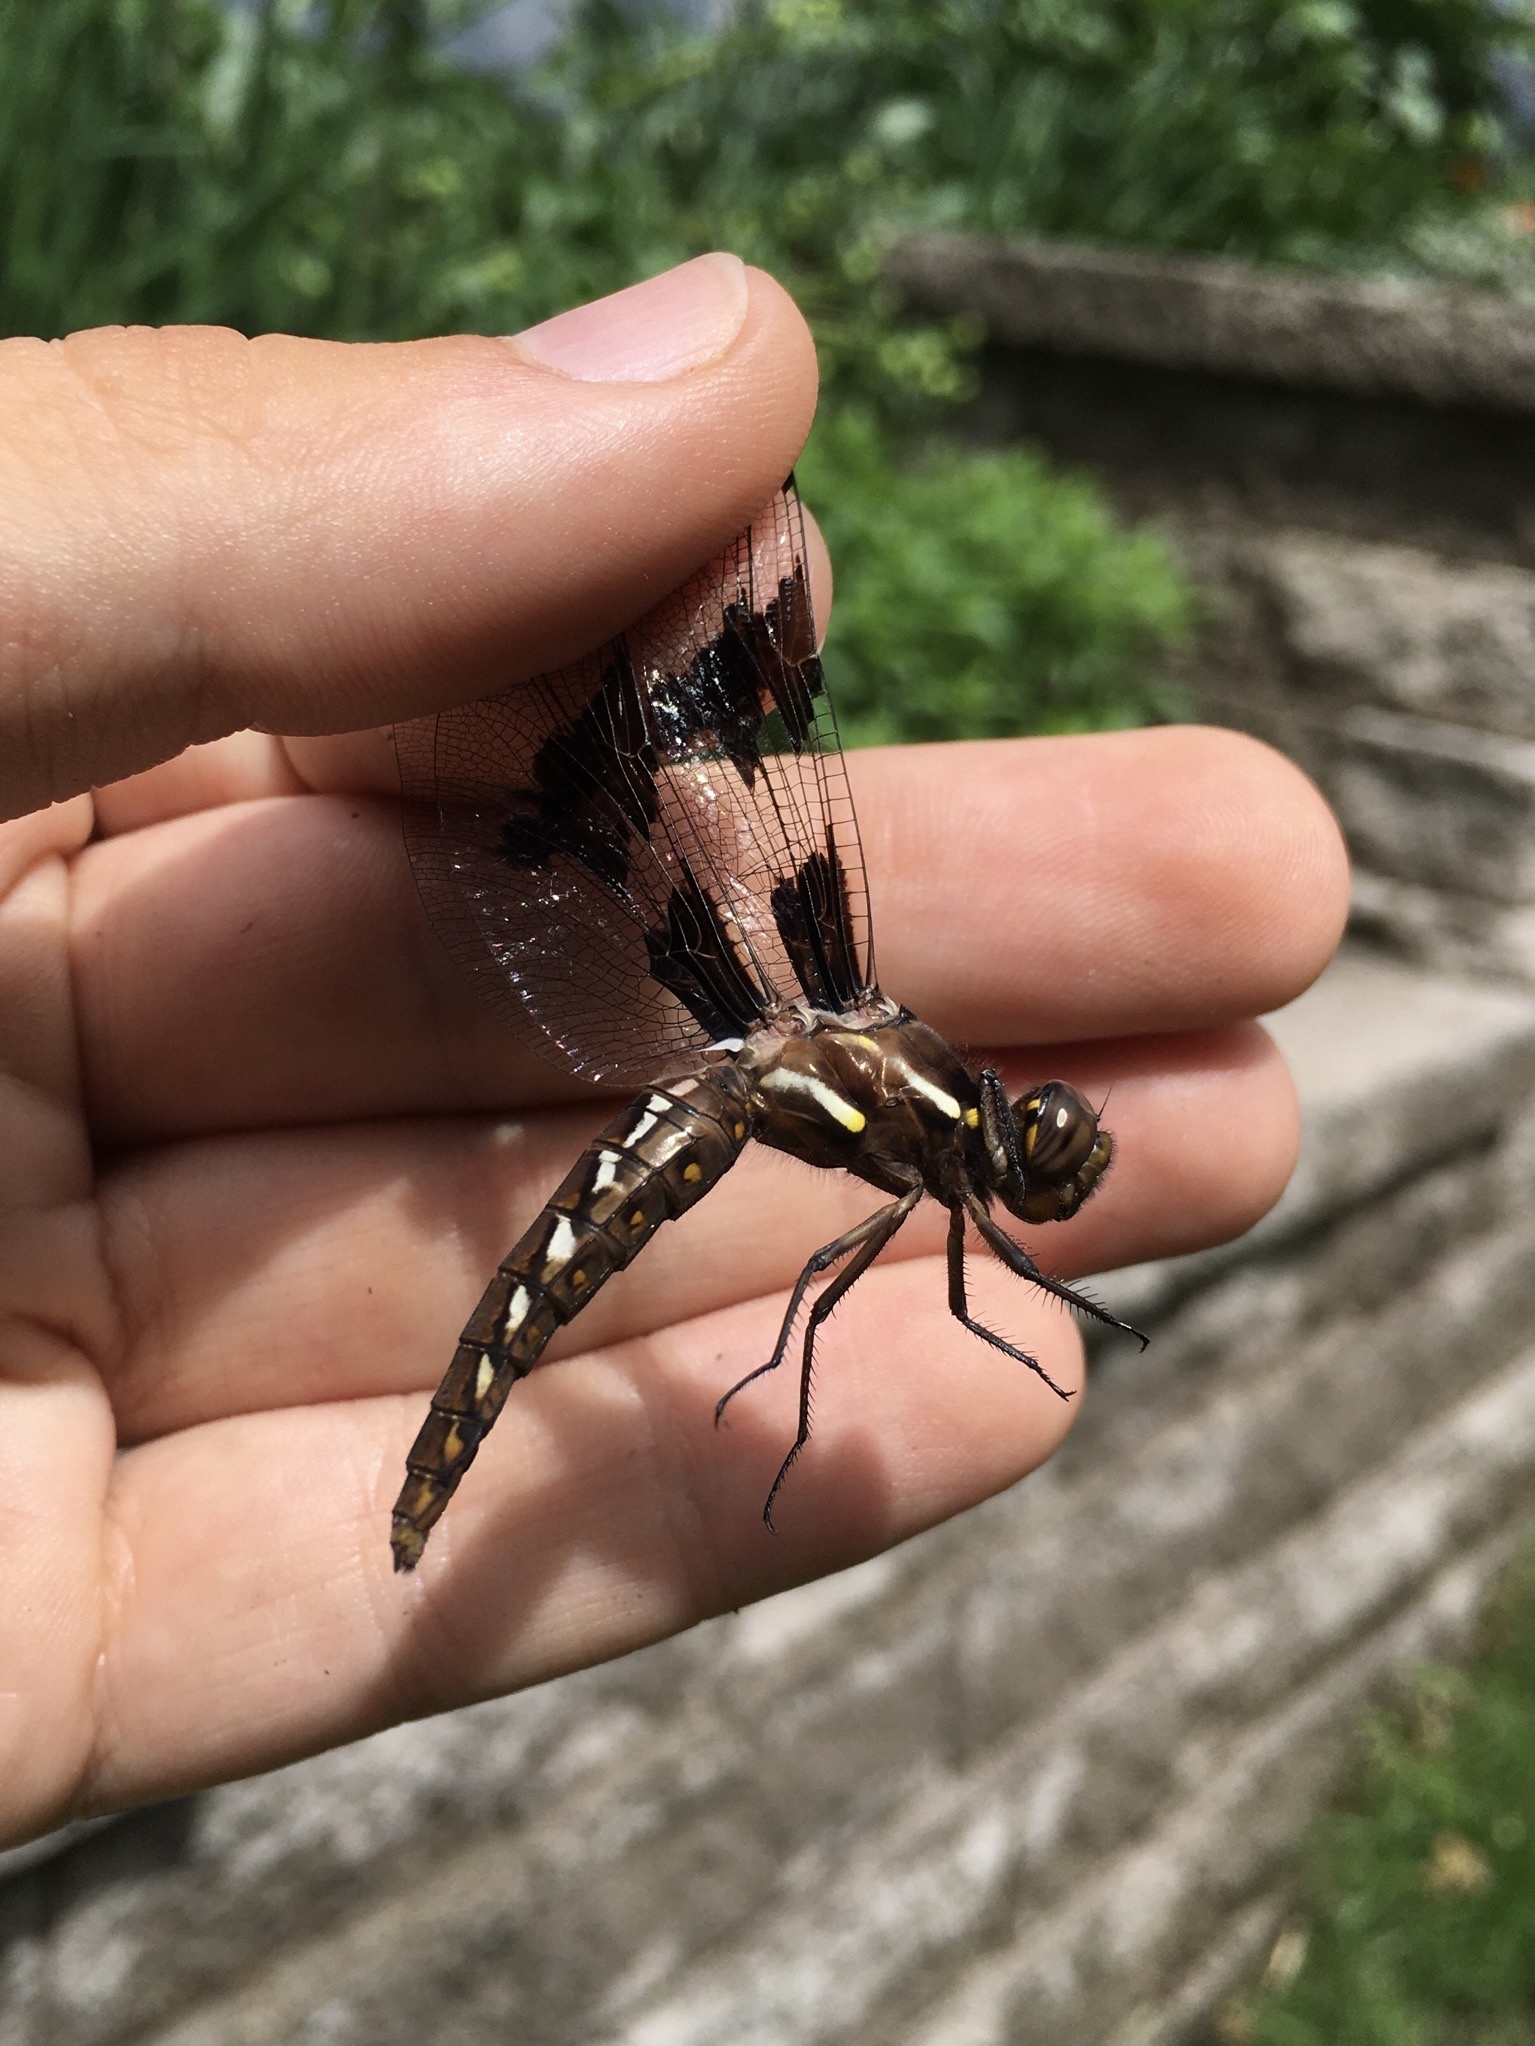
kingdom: Animalia
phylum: Arthropoda
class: Insecta
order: Odonata
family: Libellulidae
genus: Plathemis
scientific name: Plathemis lydia
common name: Common whitetail
